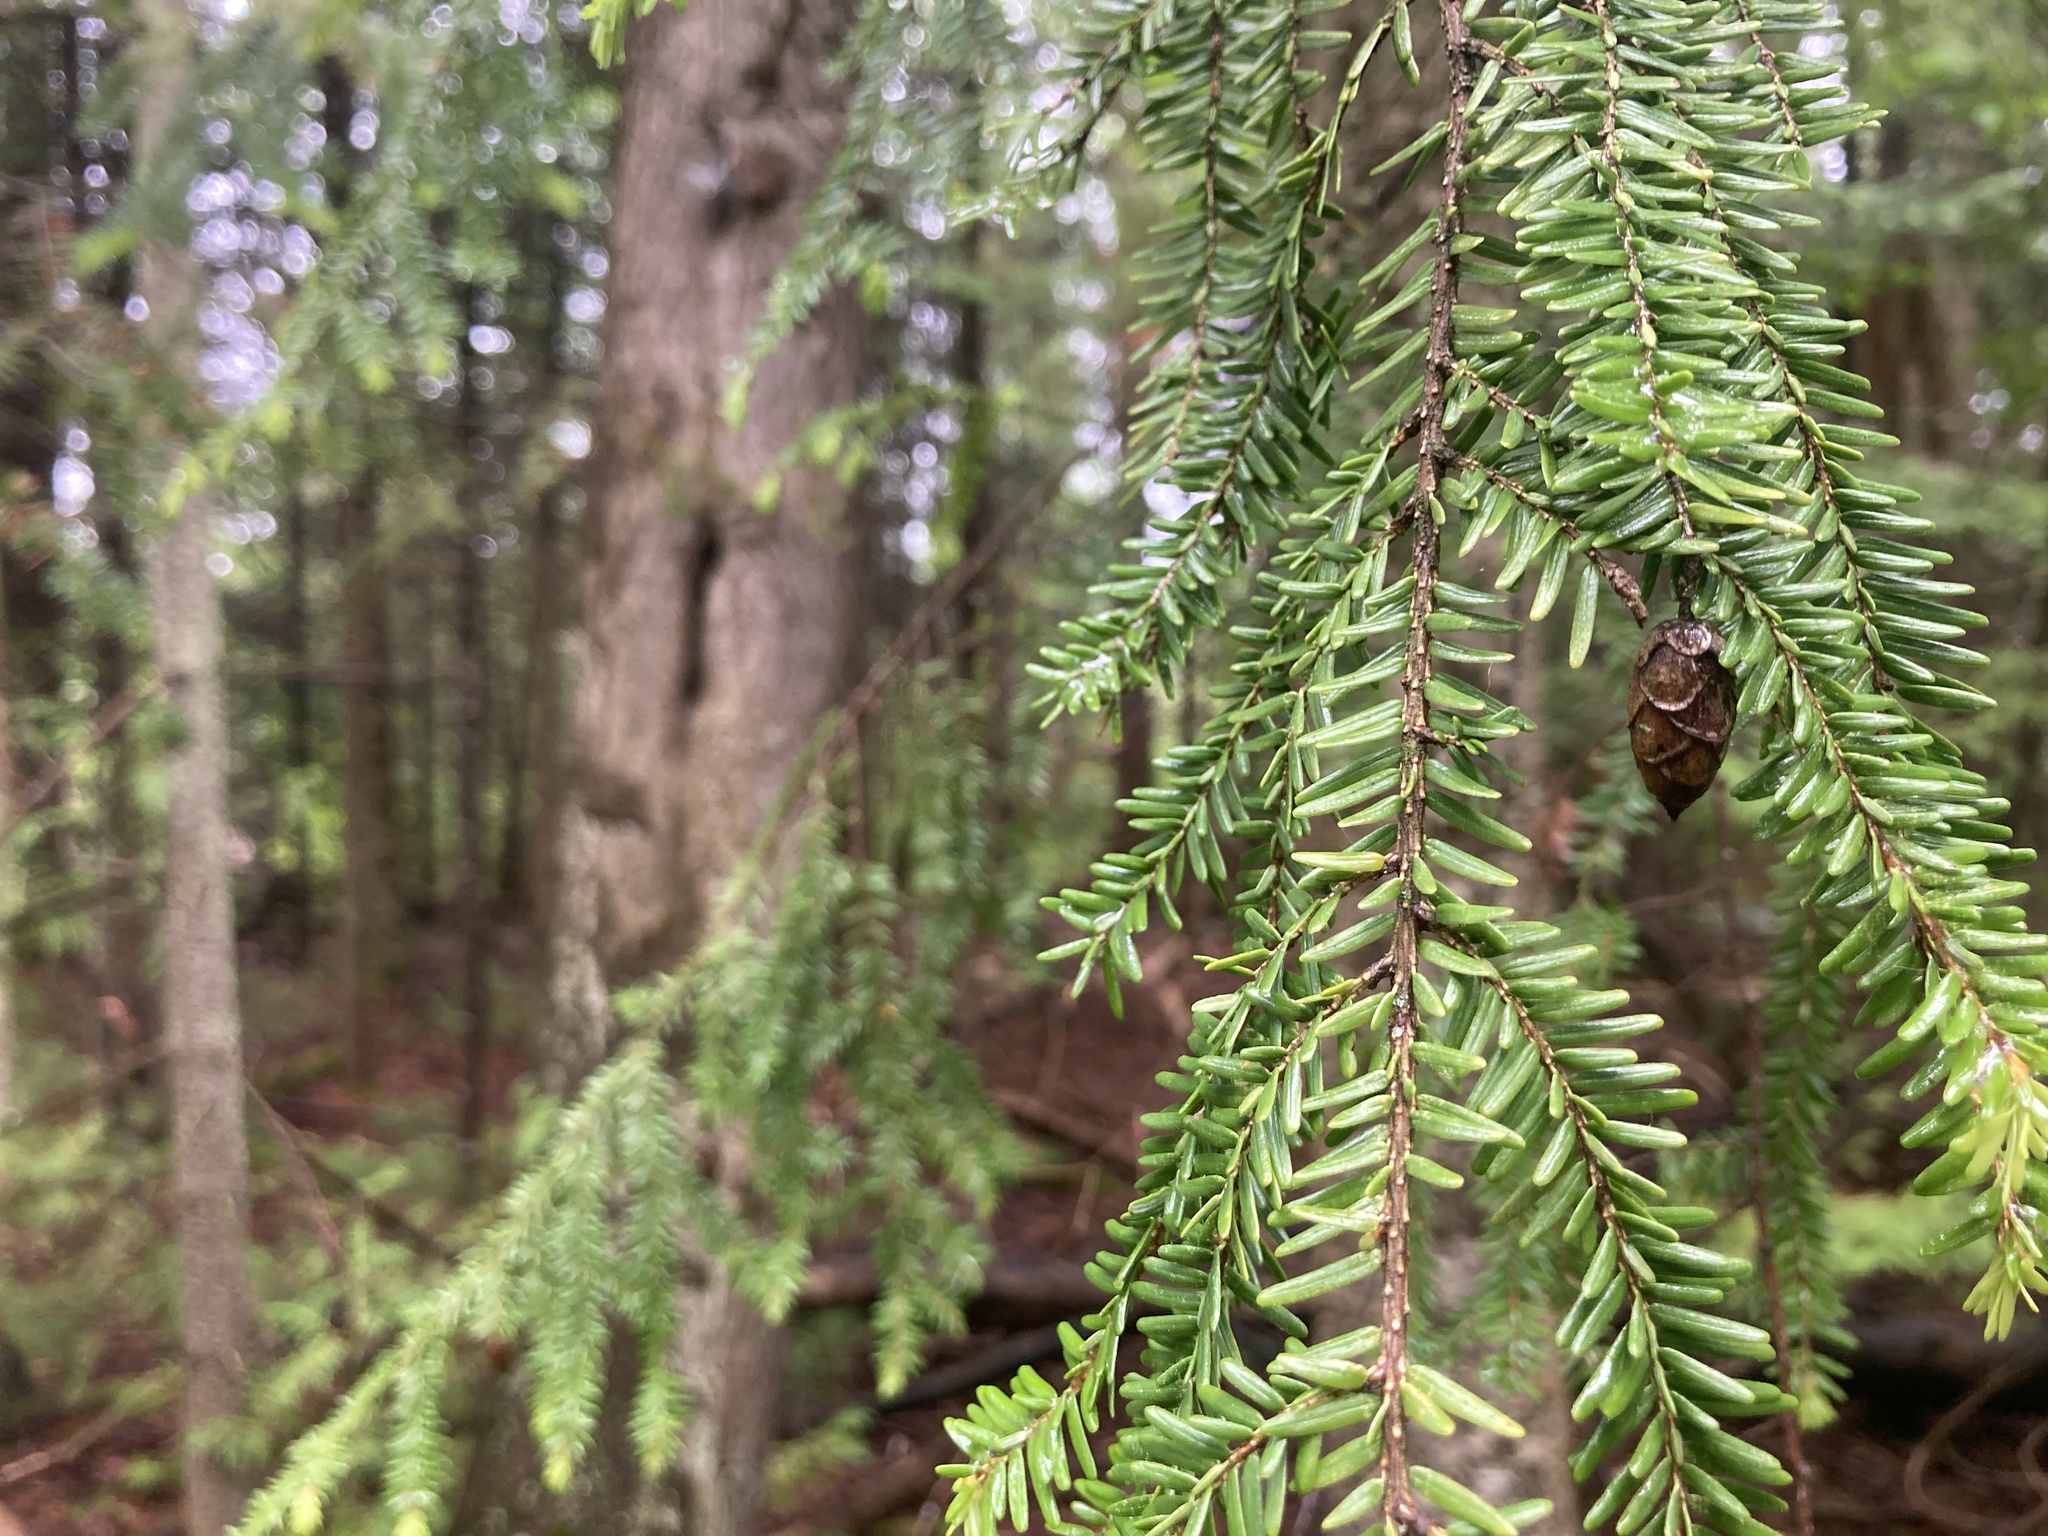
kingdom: Plantae
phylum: Tracheophyta
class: Pinopsida
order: Pinales
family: Pinaceae
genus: Tsuga
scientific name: Tsuga canadensis
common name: Eastern hemlock
